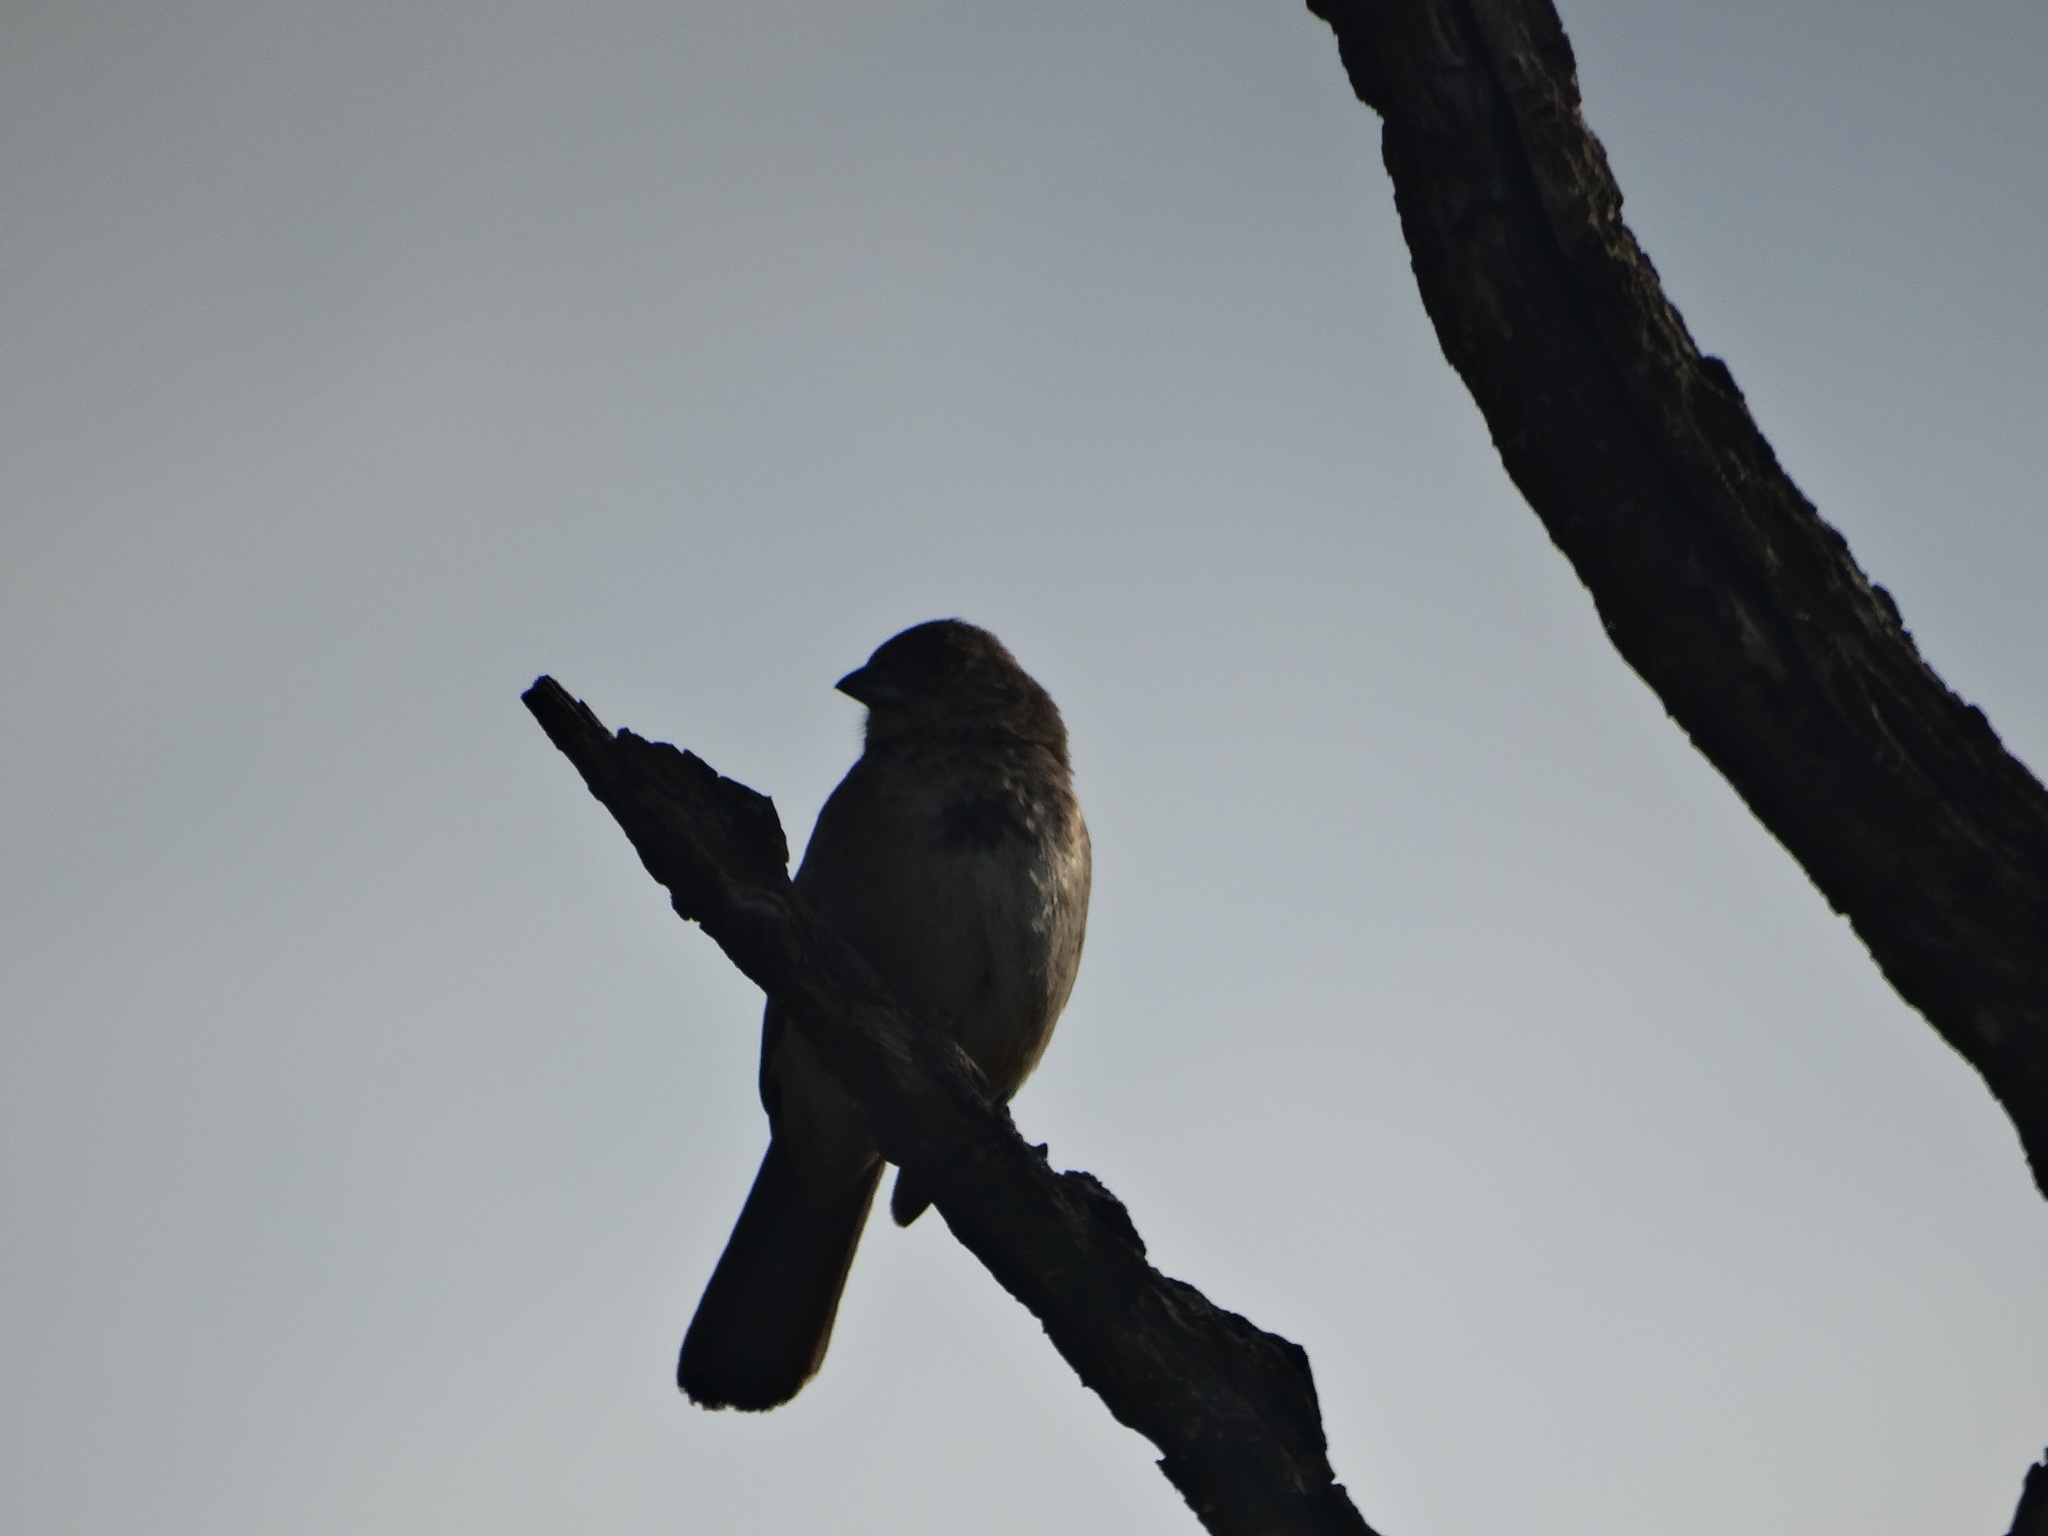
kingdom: Animalia
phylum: Chordata
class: Aves
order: Passeriformes
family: Passerellidae
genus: Melozone
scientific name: Melozone fusca
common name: Canyon towhee
